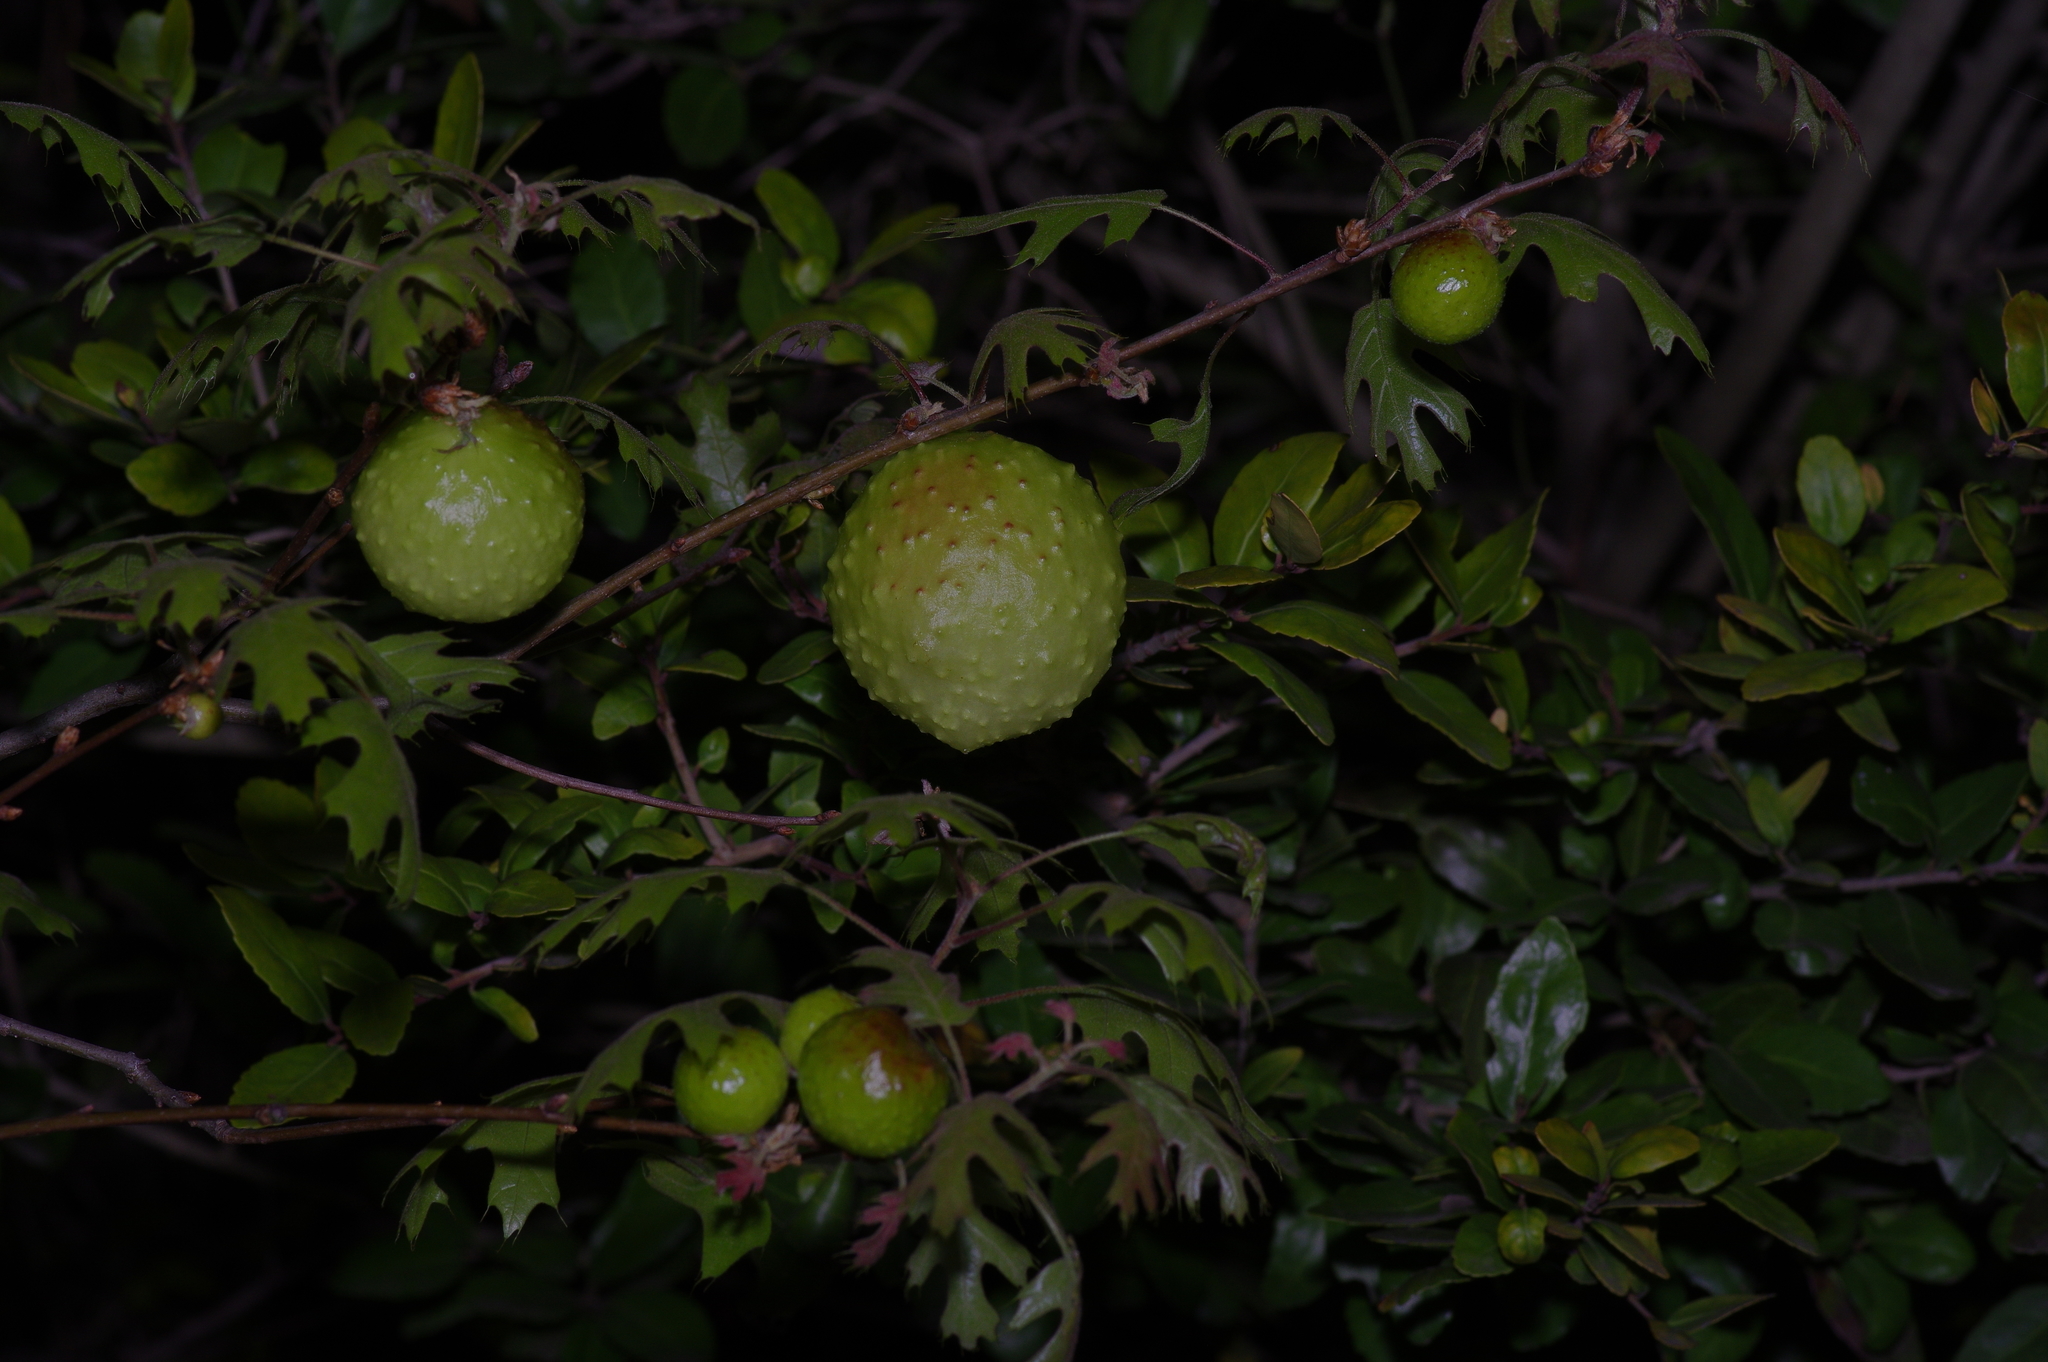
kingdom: Animalia
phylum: Arthropoda
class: Insecta
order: Hymenoptera
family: Cynipidae
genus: Amphibolips
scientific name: Amphibolips
